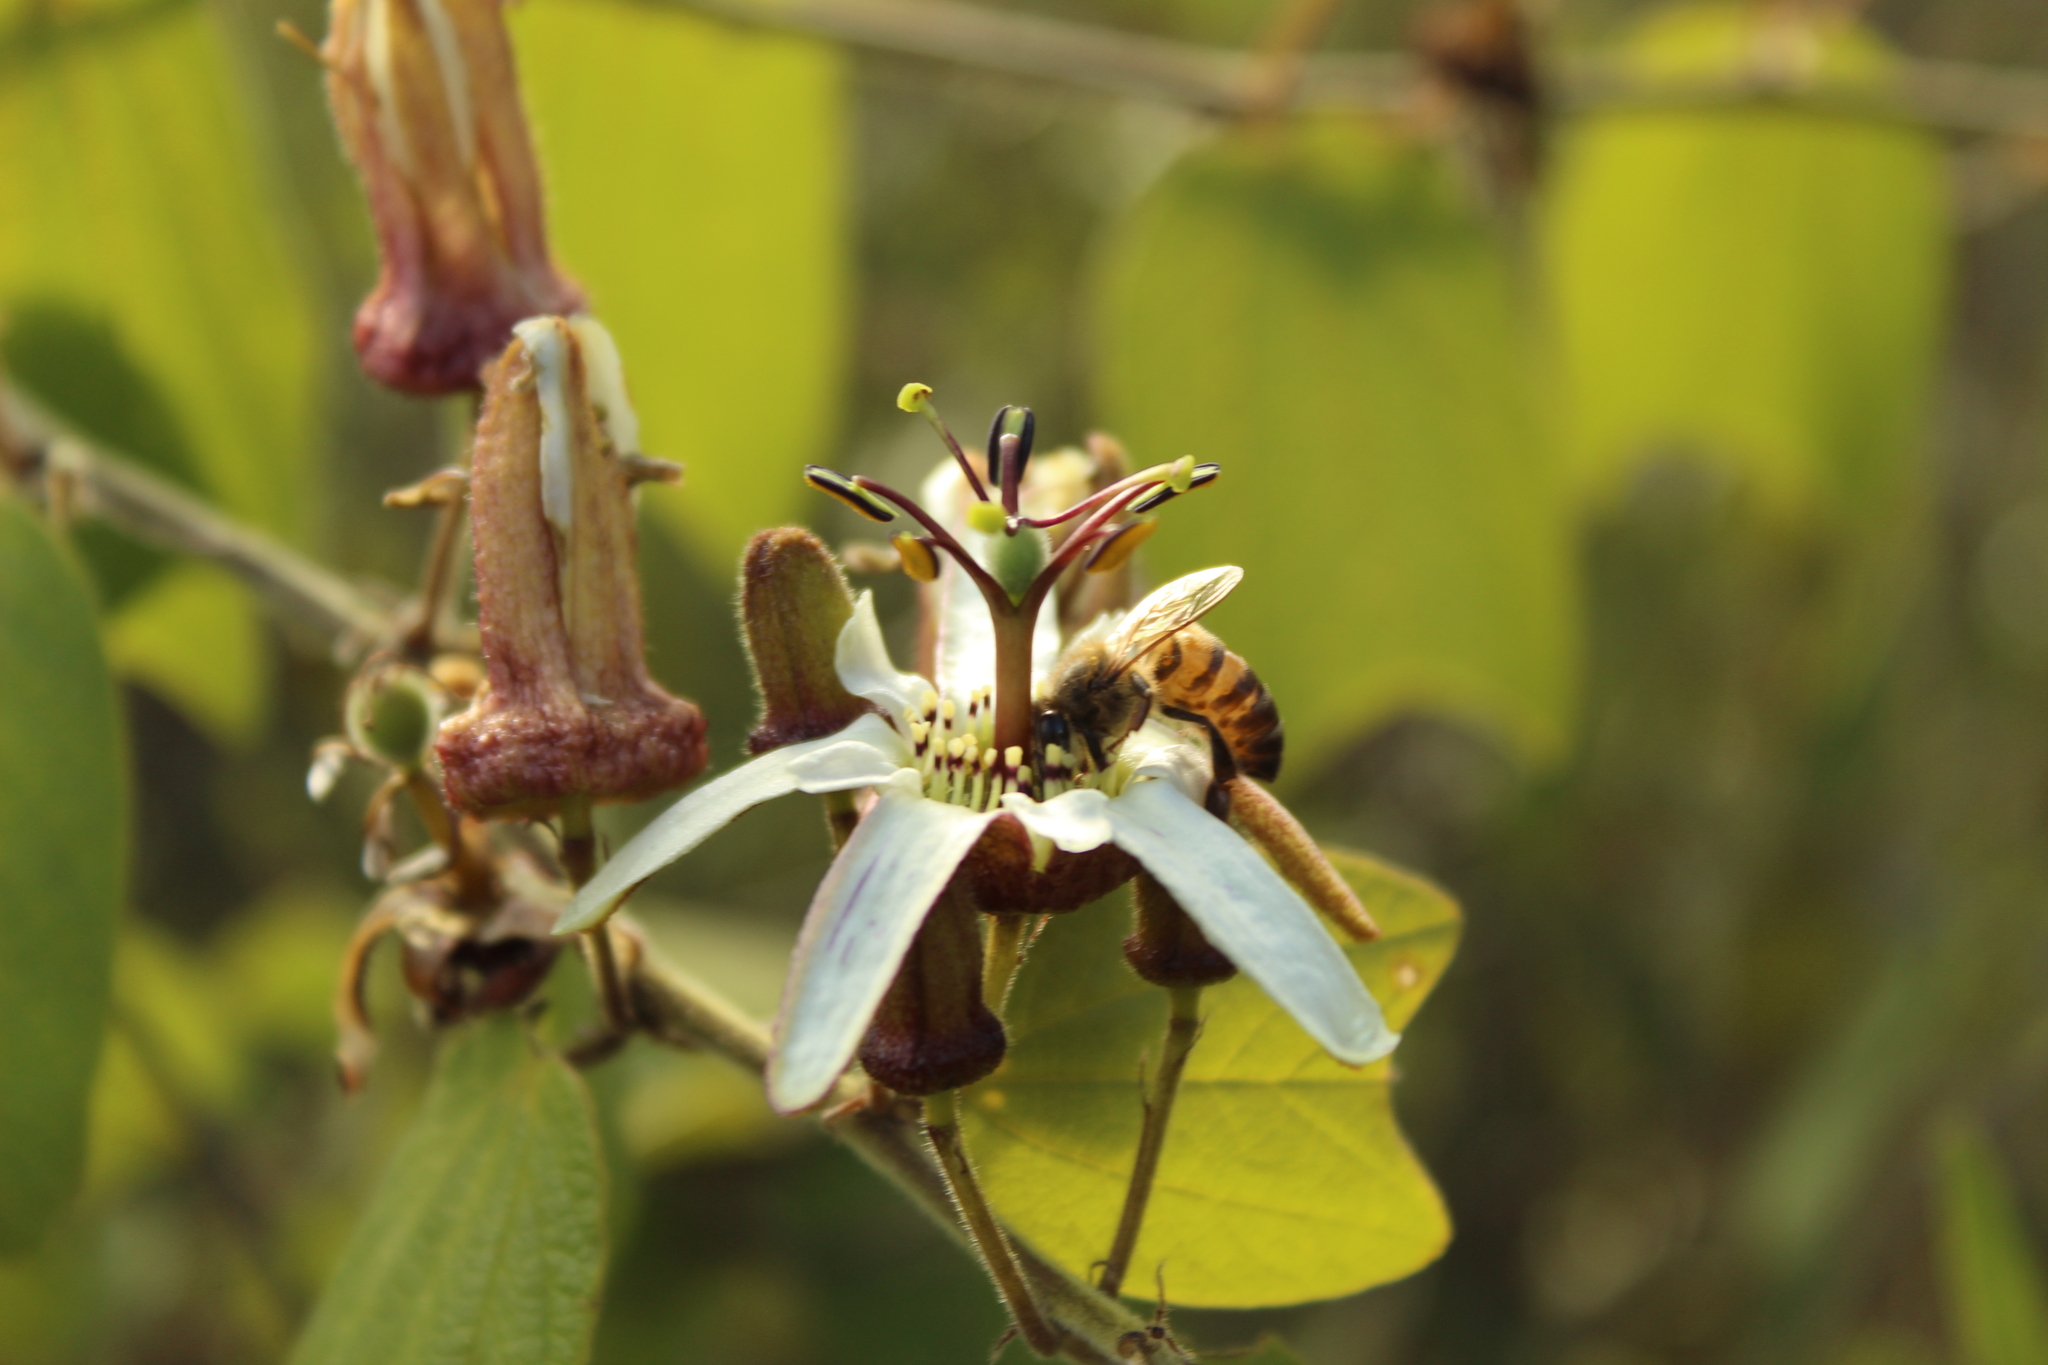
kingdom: Animalia
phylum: Arthropoda
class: Insecta
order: Hymenoptera
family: Apidae
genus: Apis
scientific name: Apis mellifera
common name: Honey bee
